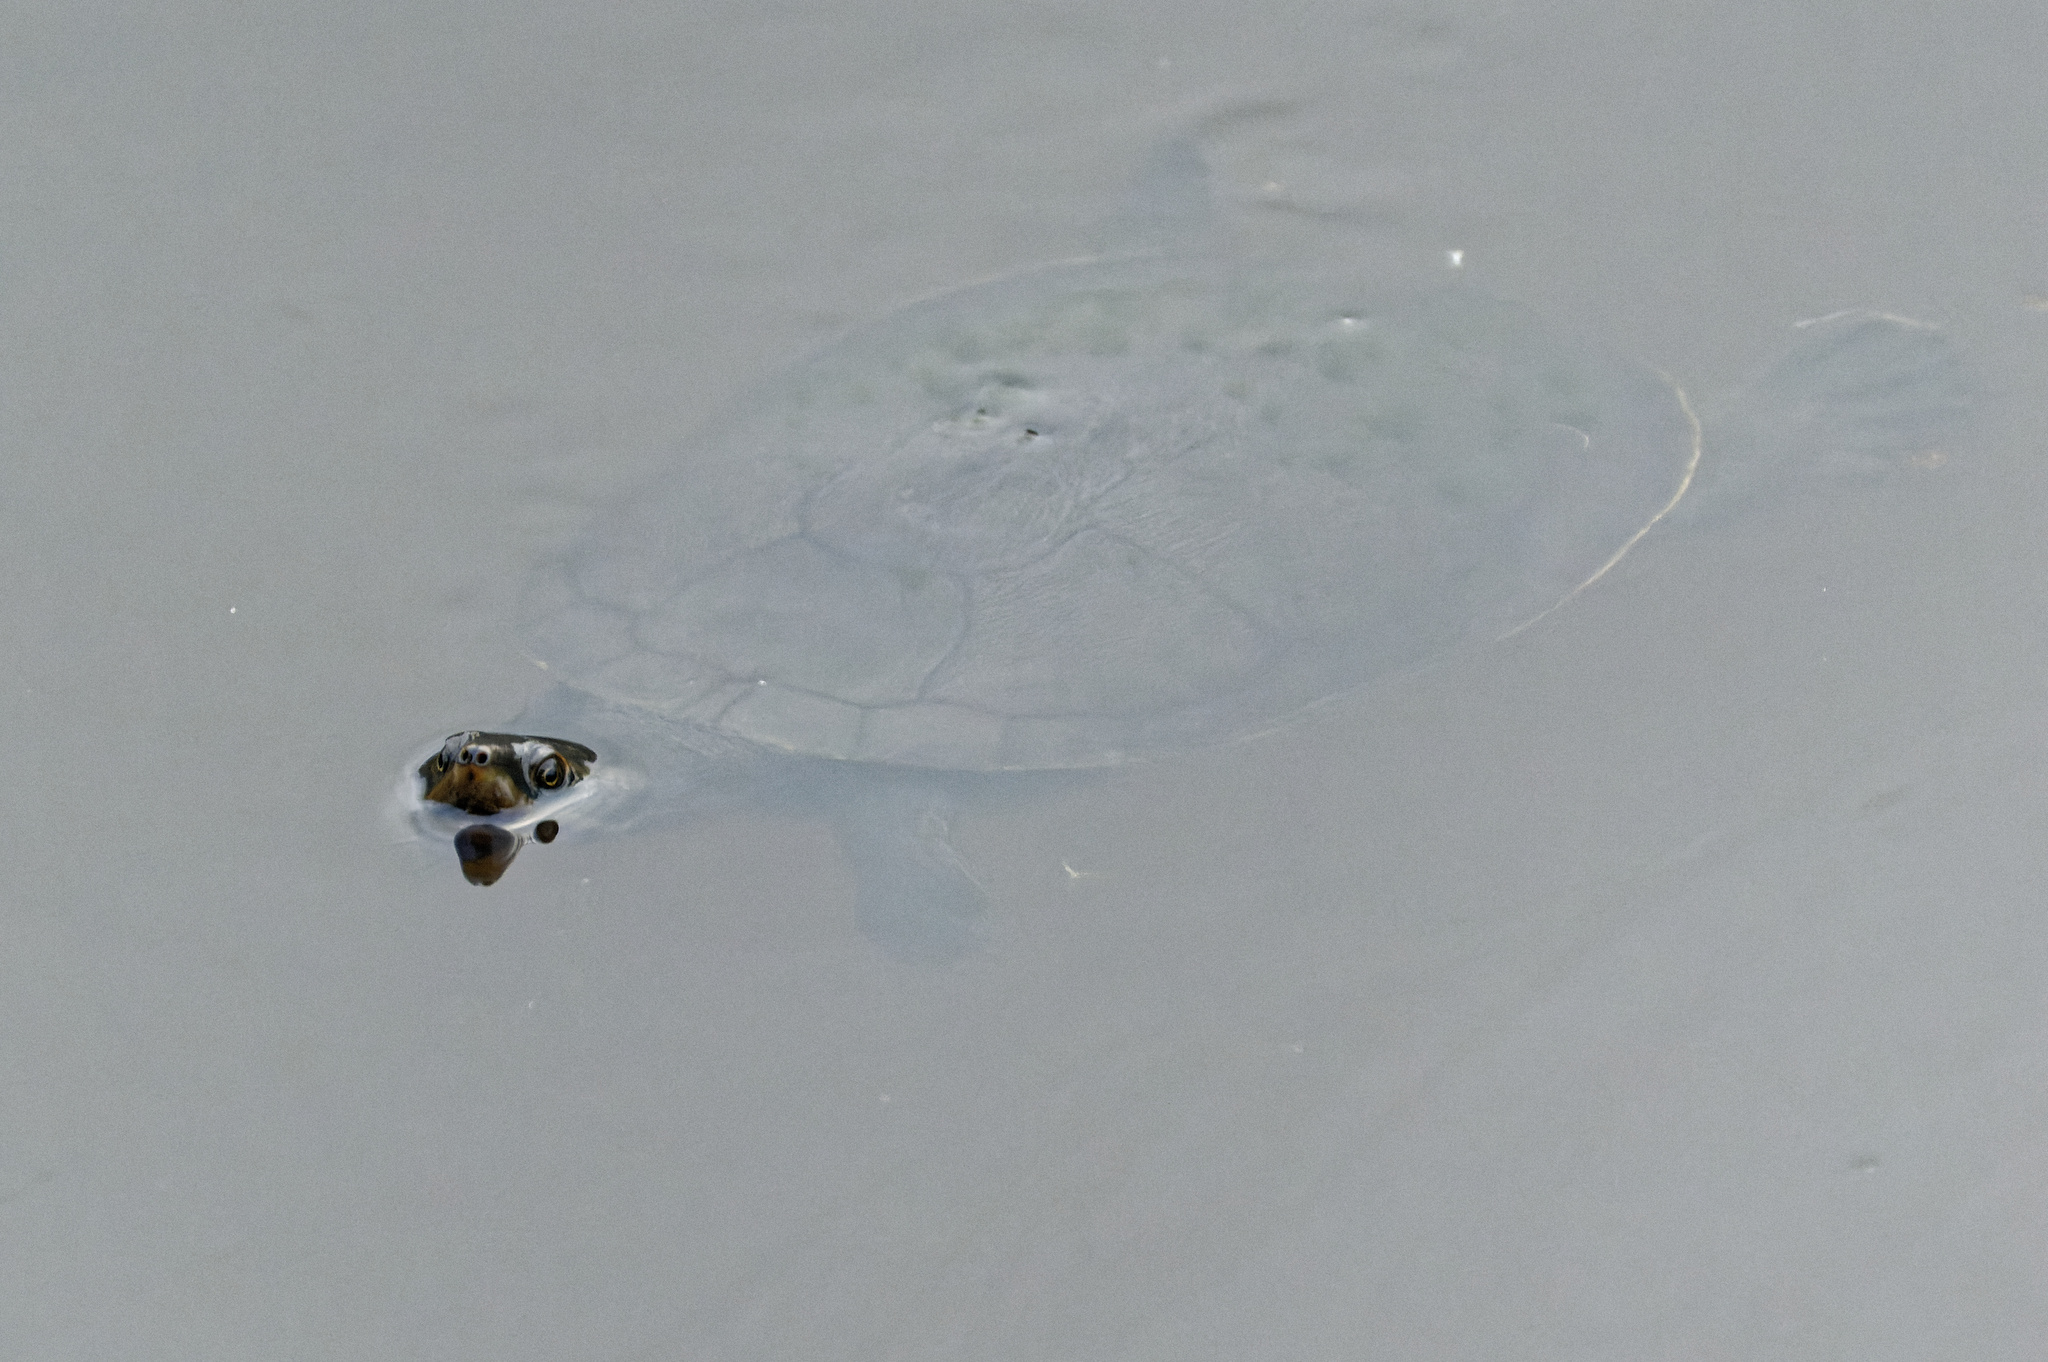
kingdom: Animalia
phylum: Chordata
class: Testudines
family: Chelidae
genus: Emydura
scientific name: Emydura macquarii
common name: Murray river turtle
